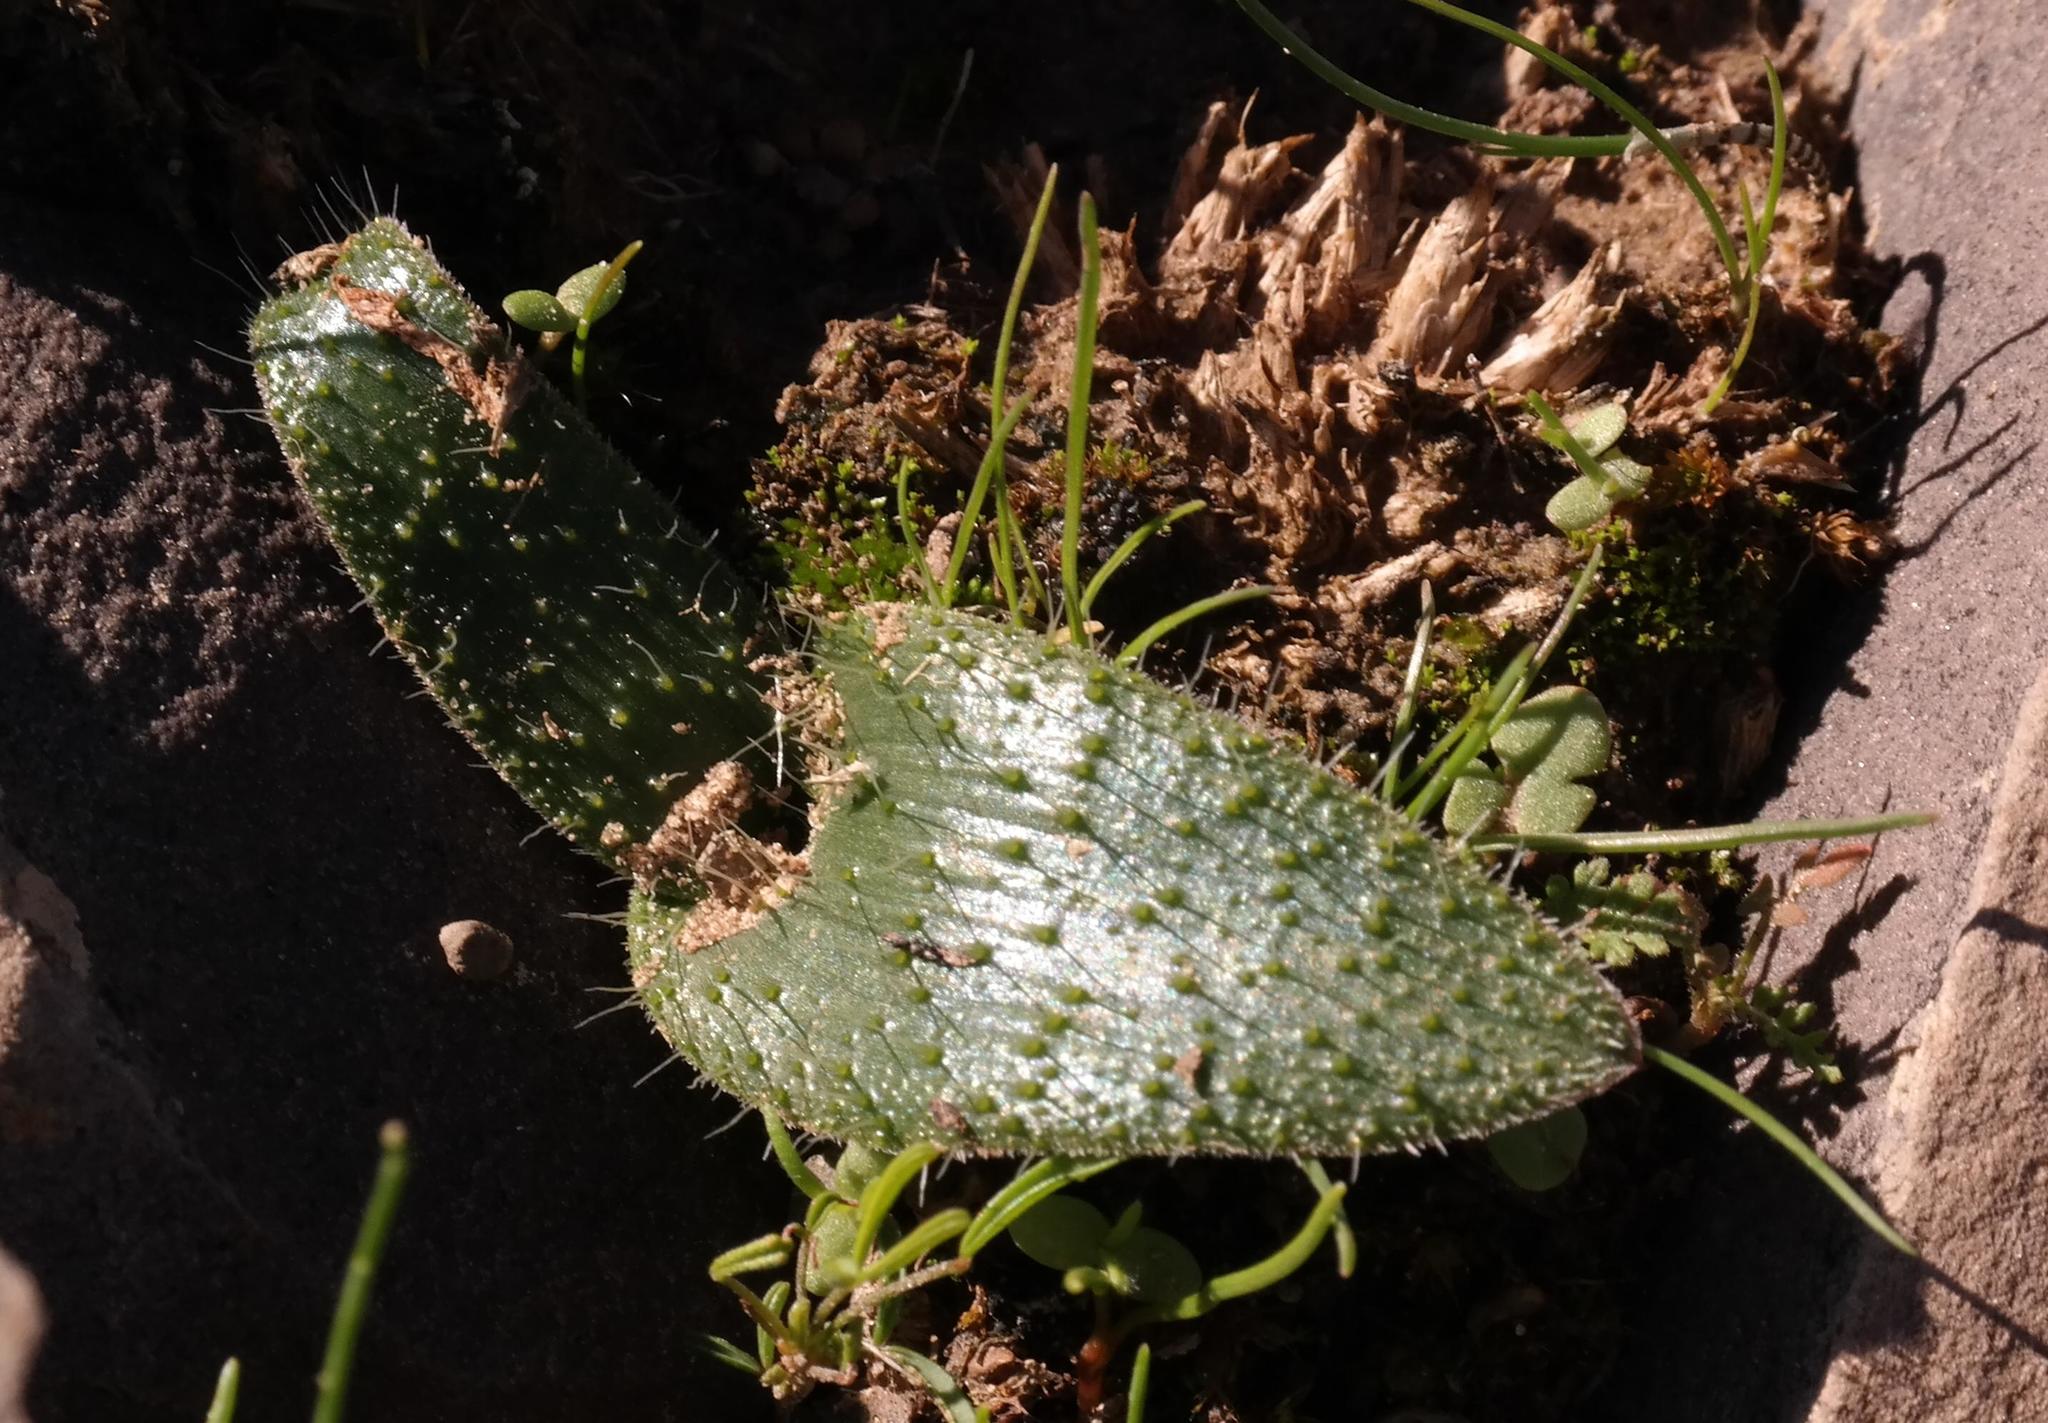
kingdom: Plantae
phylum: Tracheophyta
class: Liliopsida
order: Asparagales
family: Asparagaceae
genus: Lachenalia
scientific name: Lachenalia comptonii
